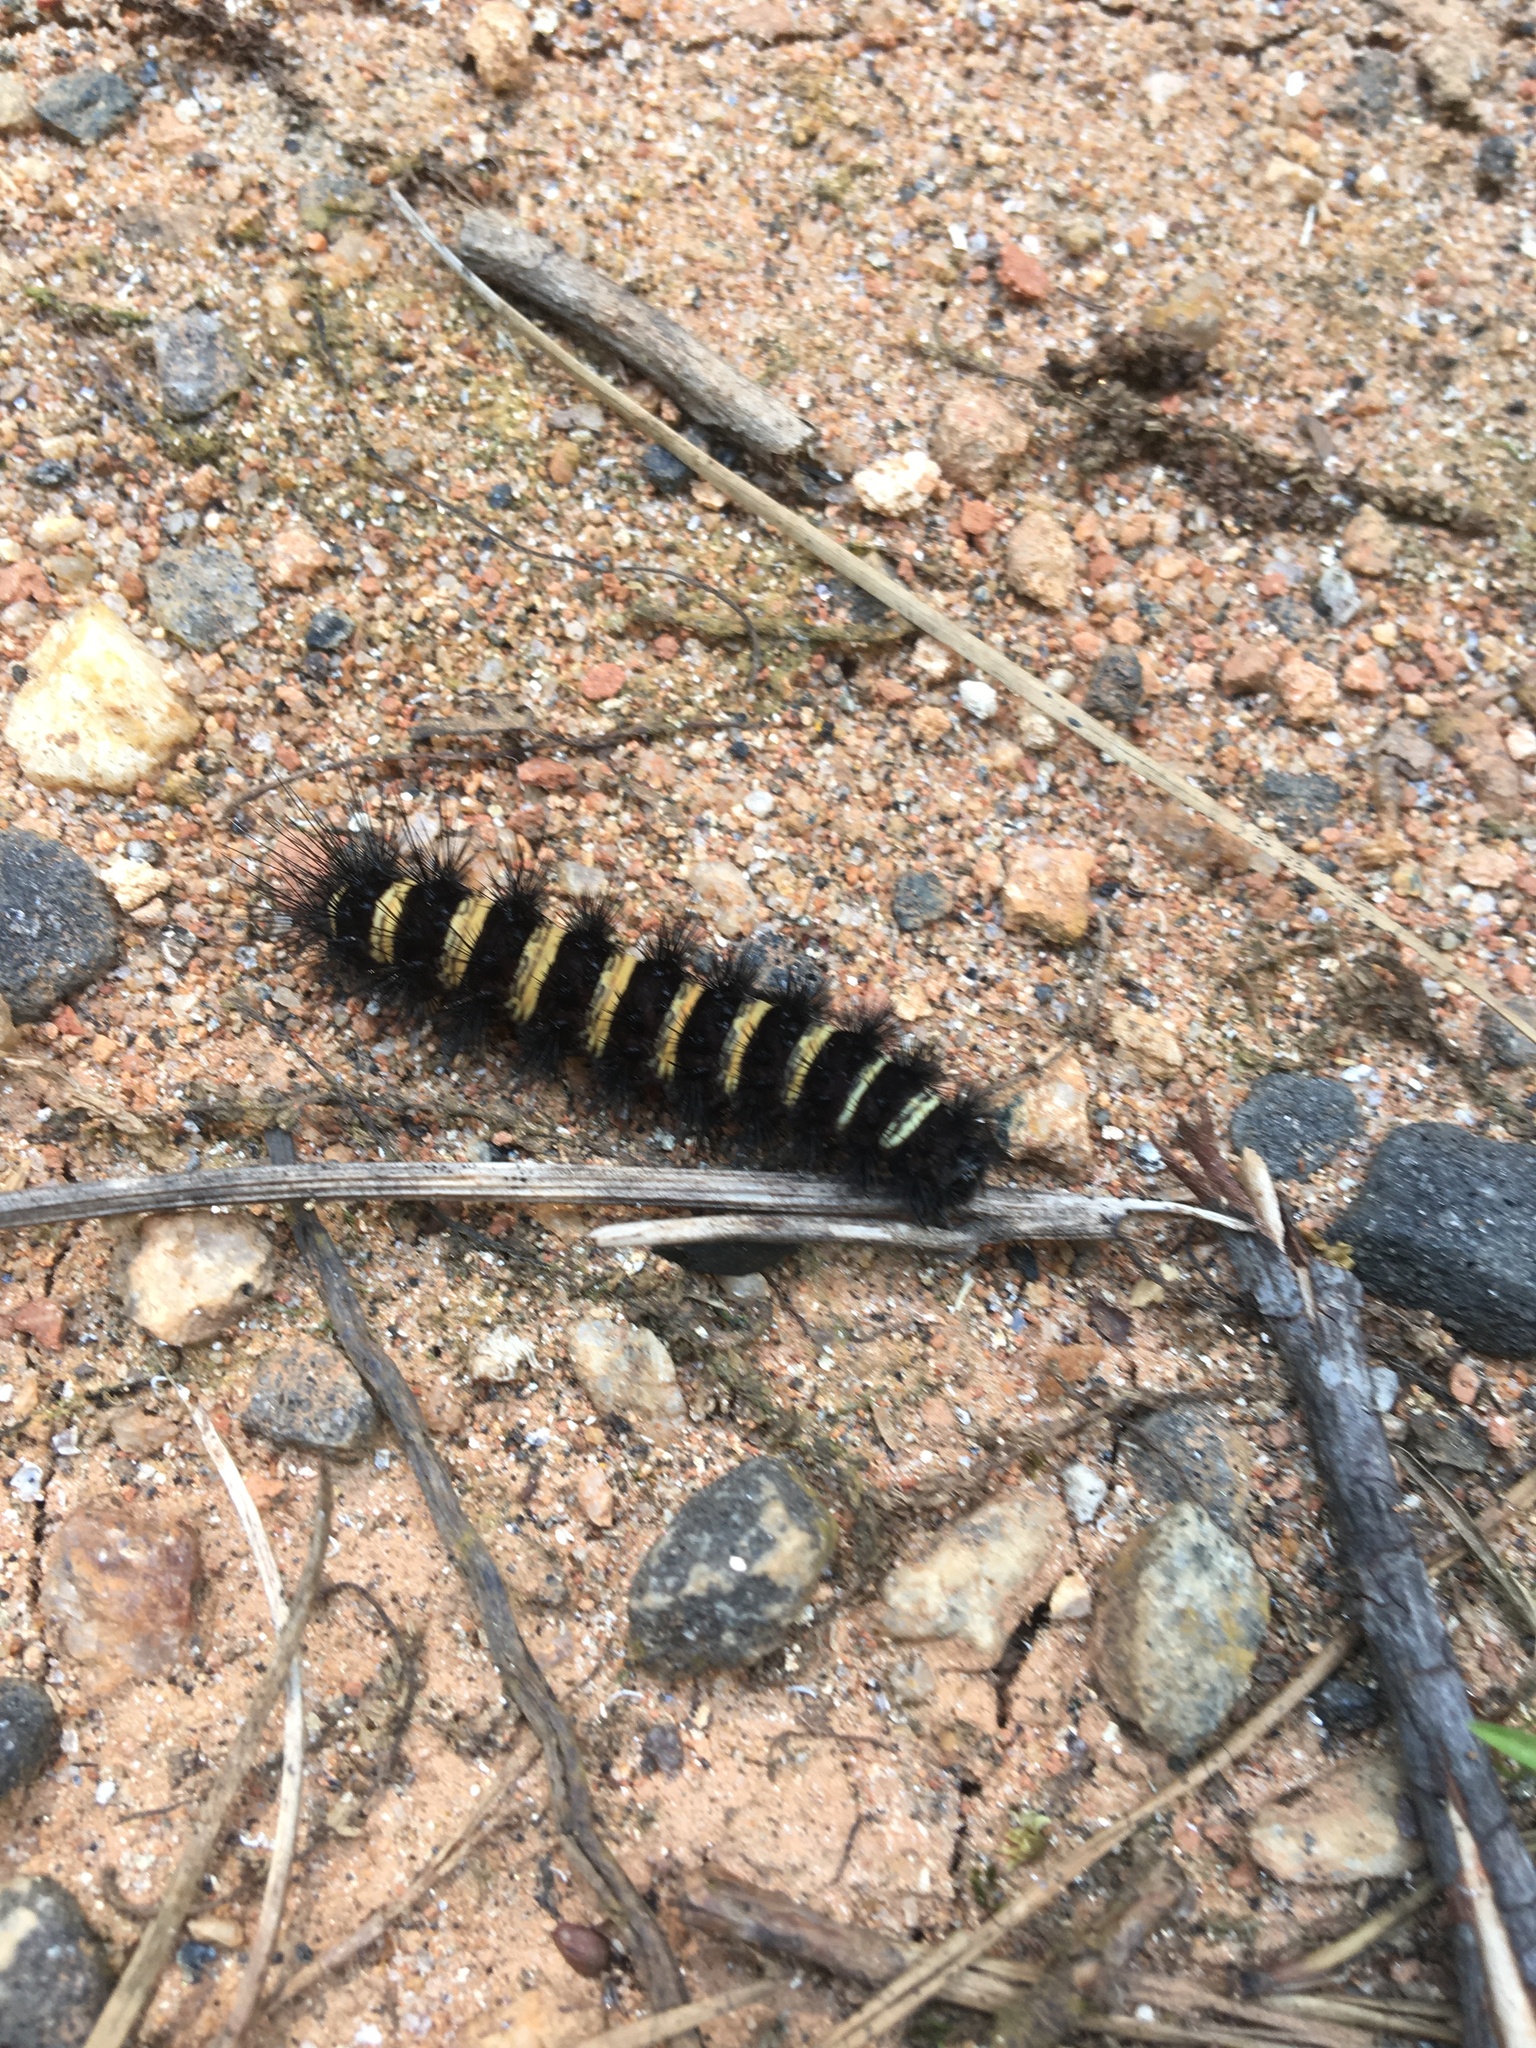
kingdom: Animalia
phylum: Arthropoda
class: Insecta
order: Lepidoptera
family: Erebidae
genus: Spilosoma
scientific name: Spilosoma congrua
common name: Agreeable tiger moth
